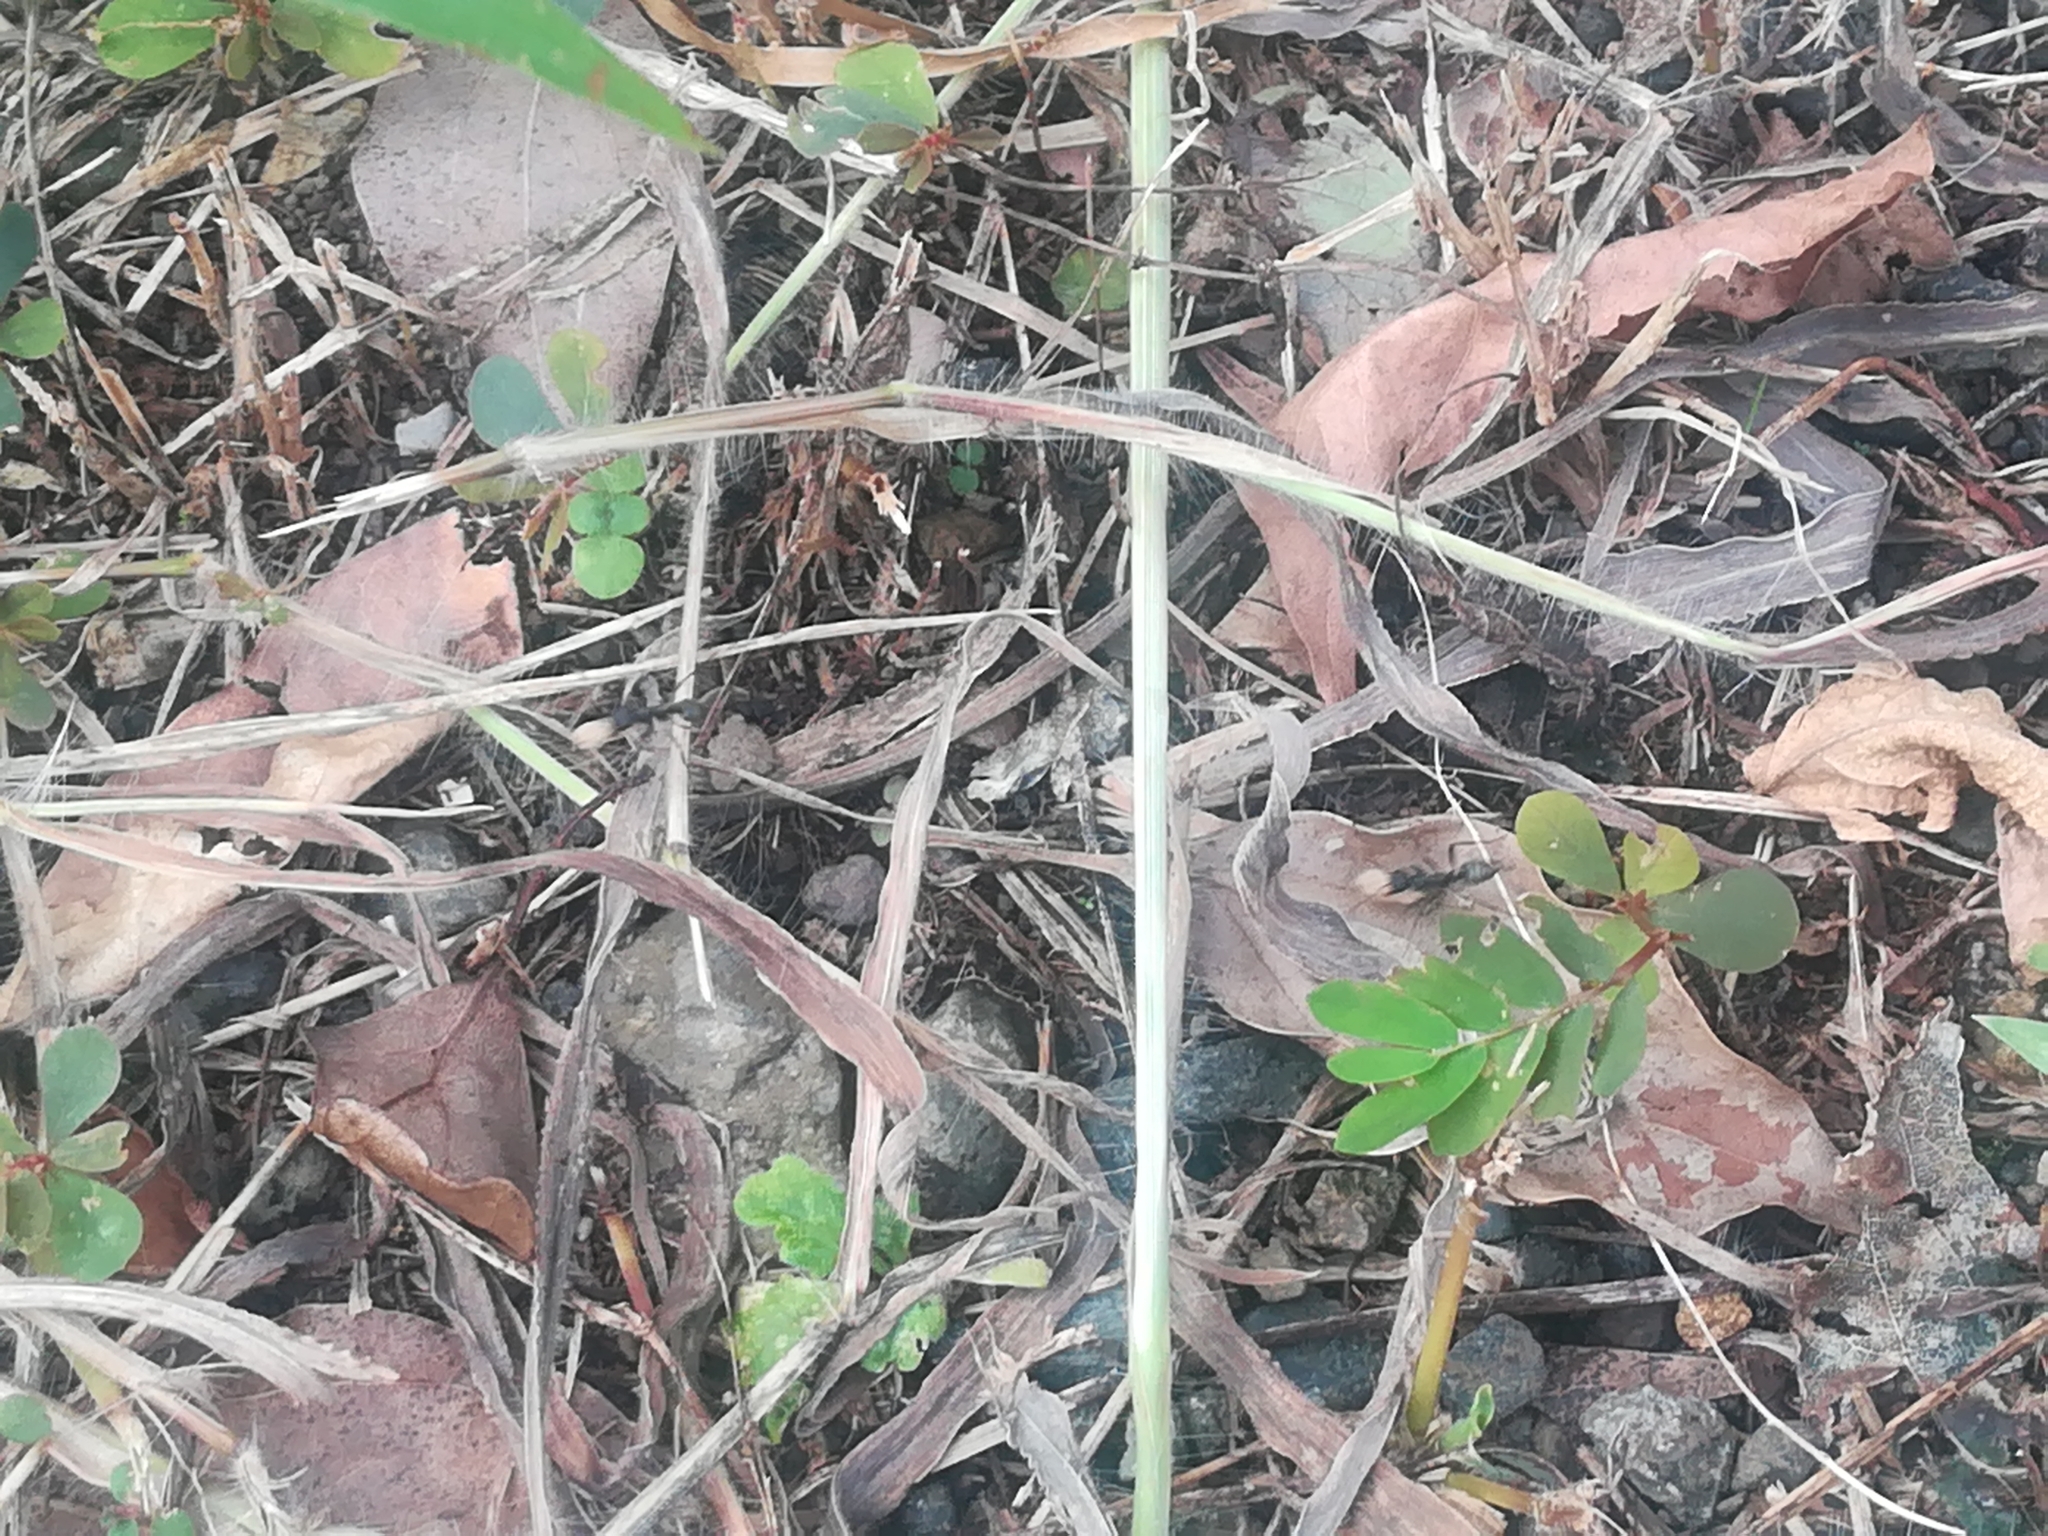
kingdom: Animalia
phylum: Arthropoda
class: Insecta
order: Hymenoptera
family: Formicidae
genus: Polyergus
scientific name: Polyergus samurai
